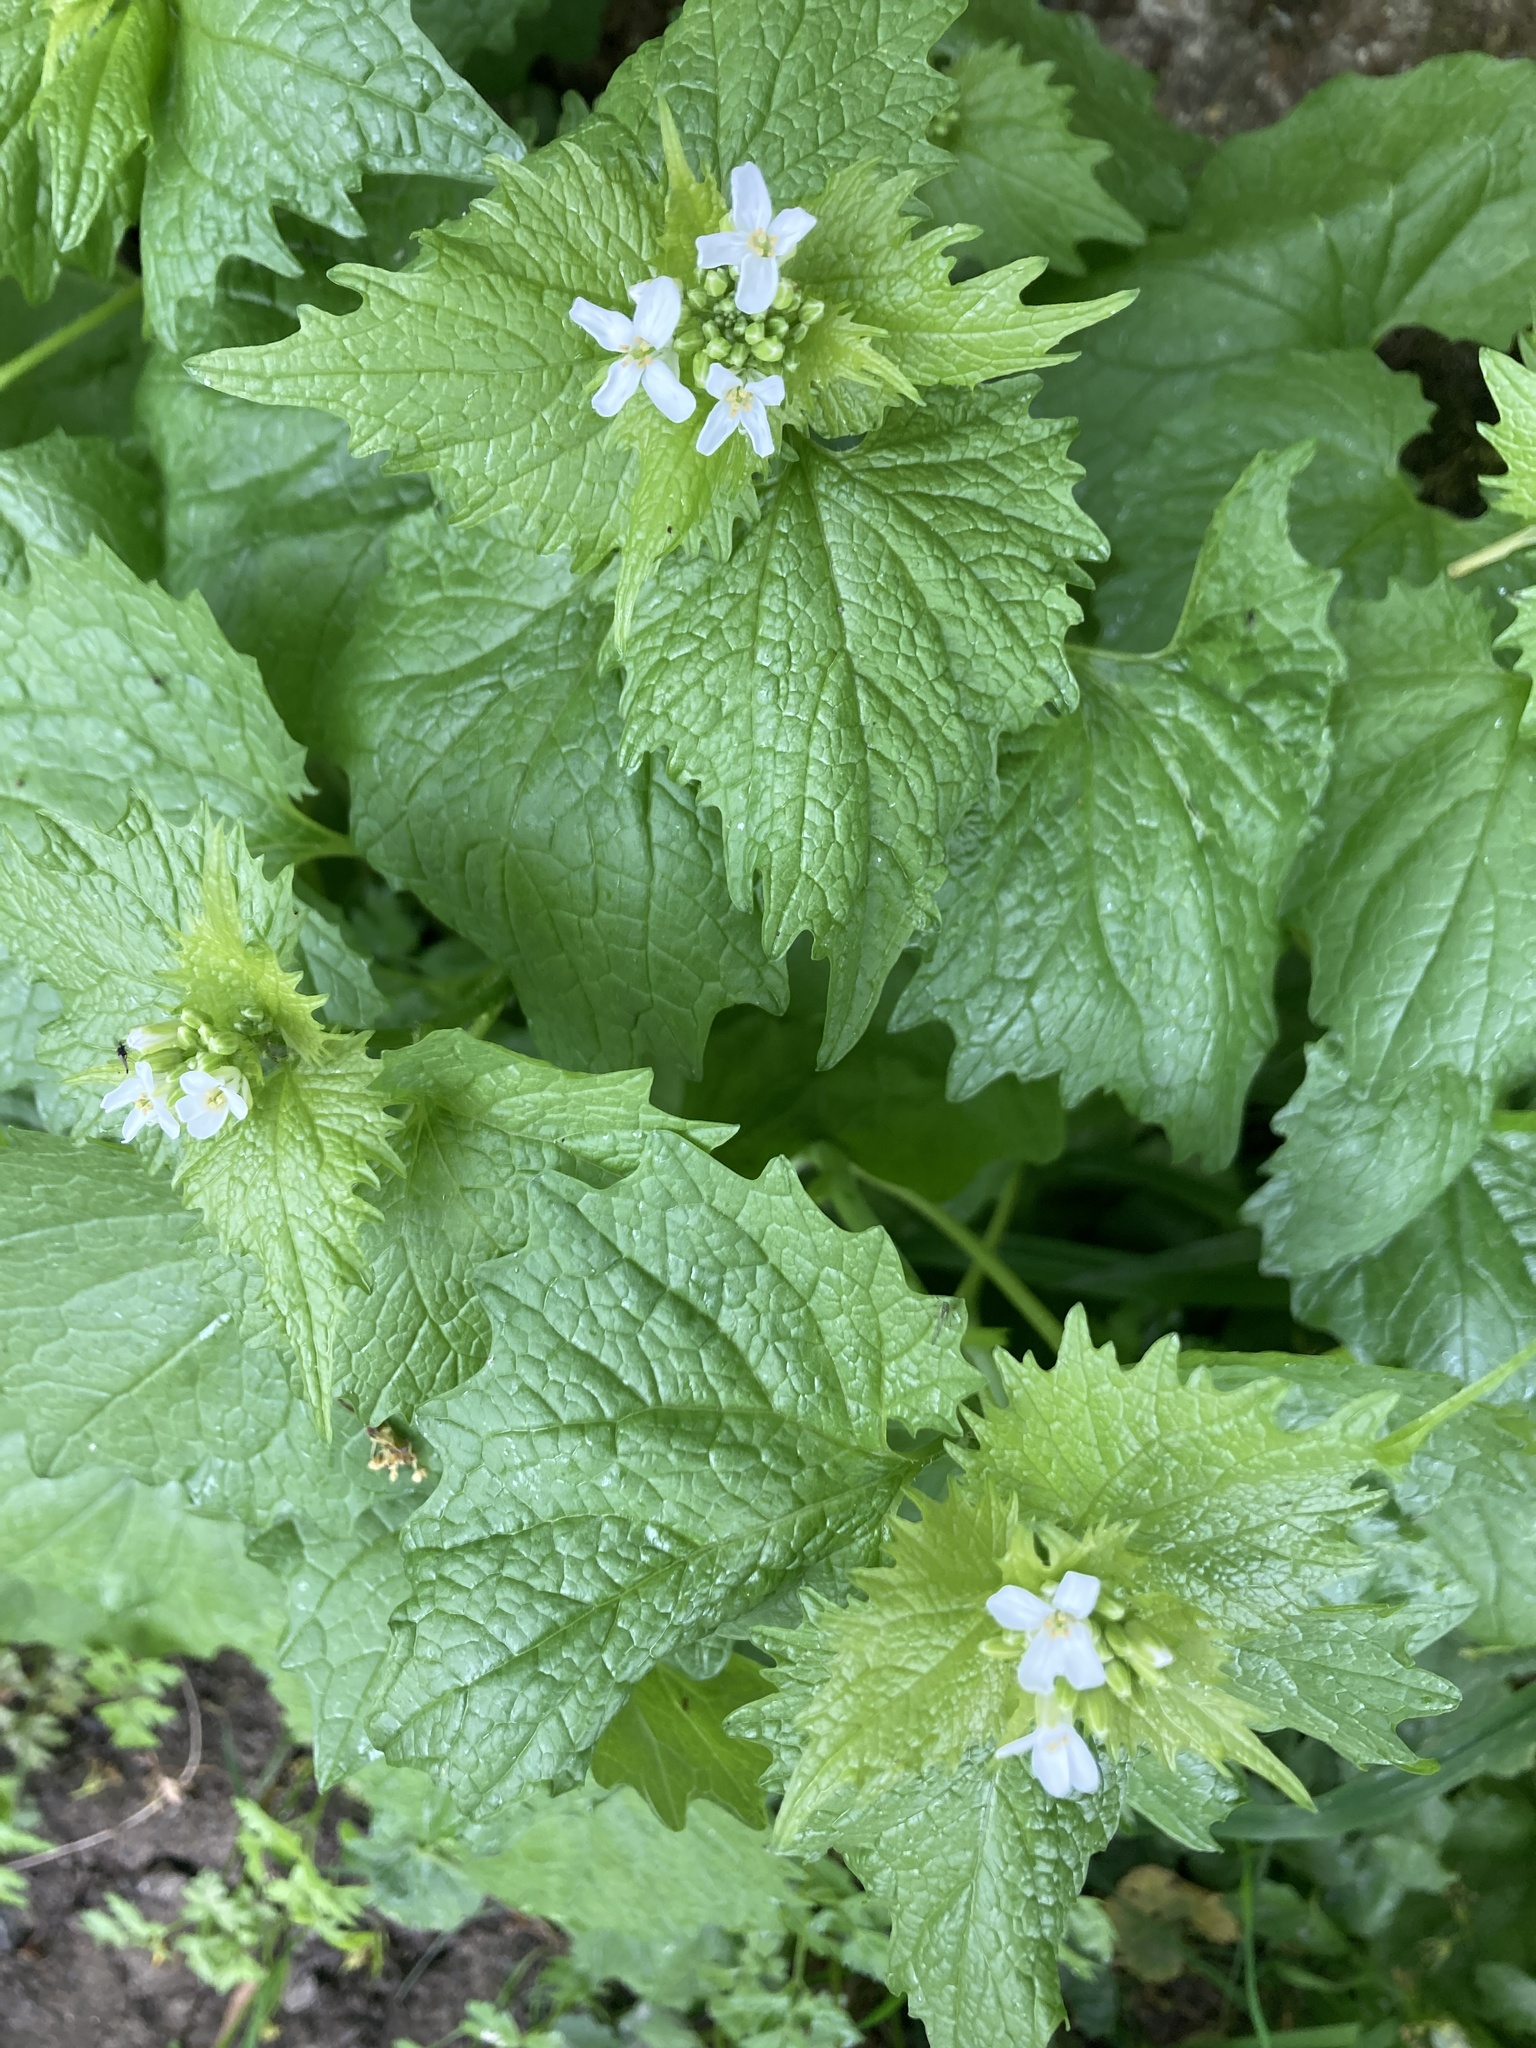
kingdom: Plantae
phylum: Tracheophyta
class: Magnoliopsida
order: Brassicales
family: Brassicaceae
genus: Alliaria
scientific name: Alliaria petiolata
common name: Garlic mustard
